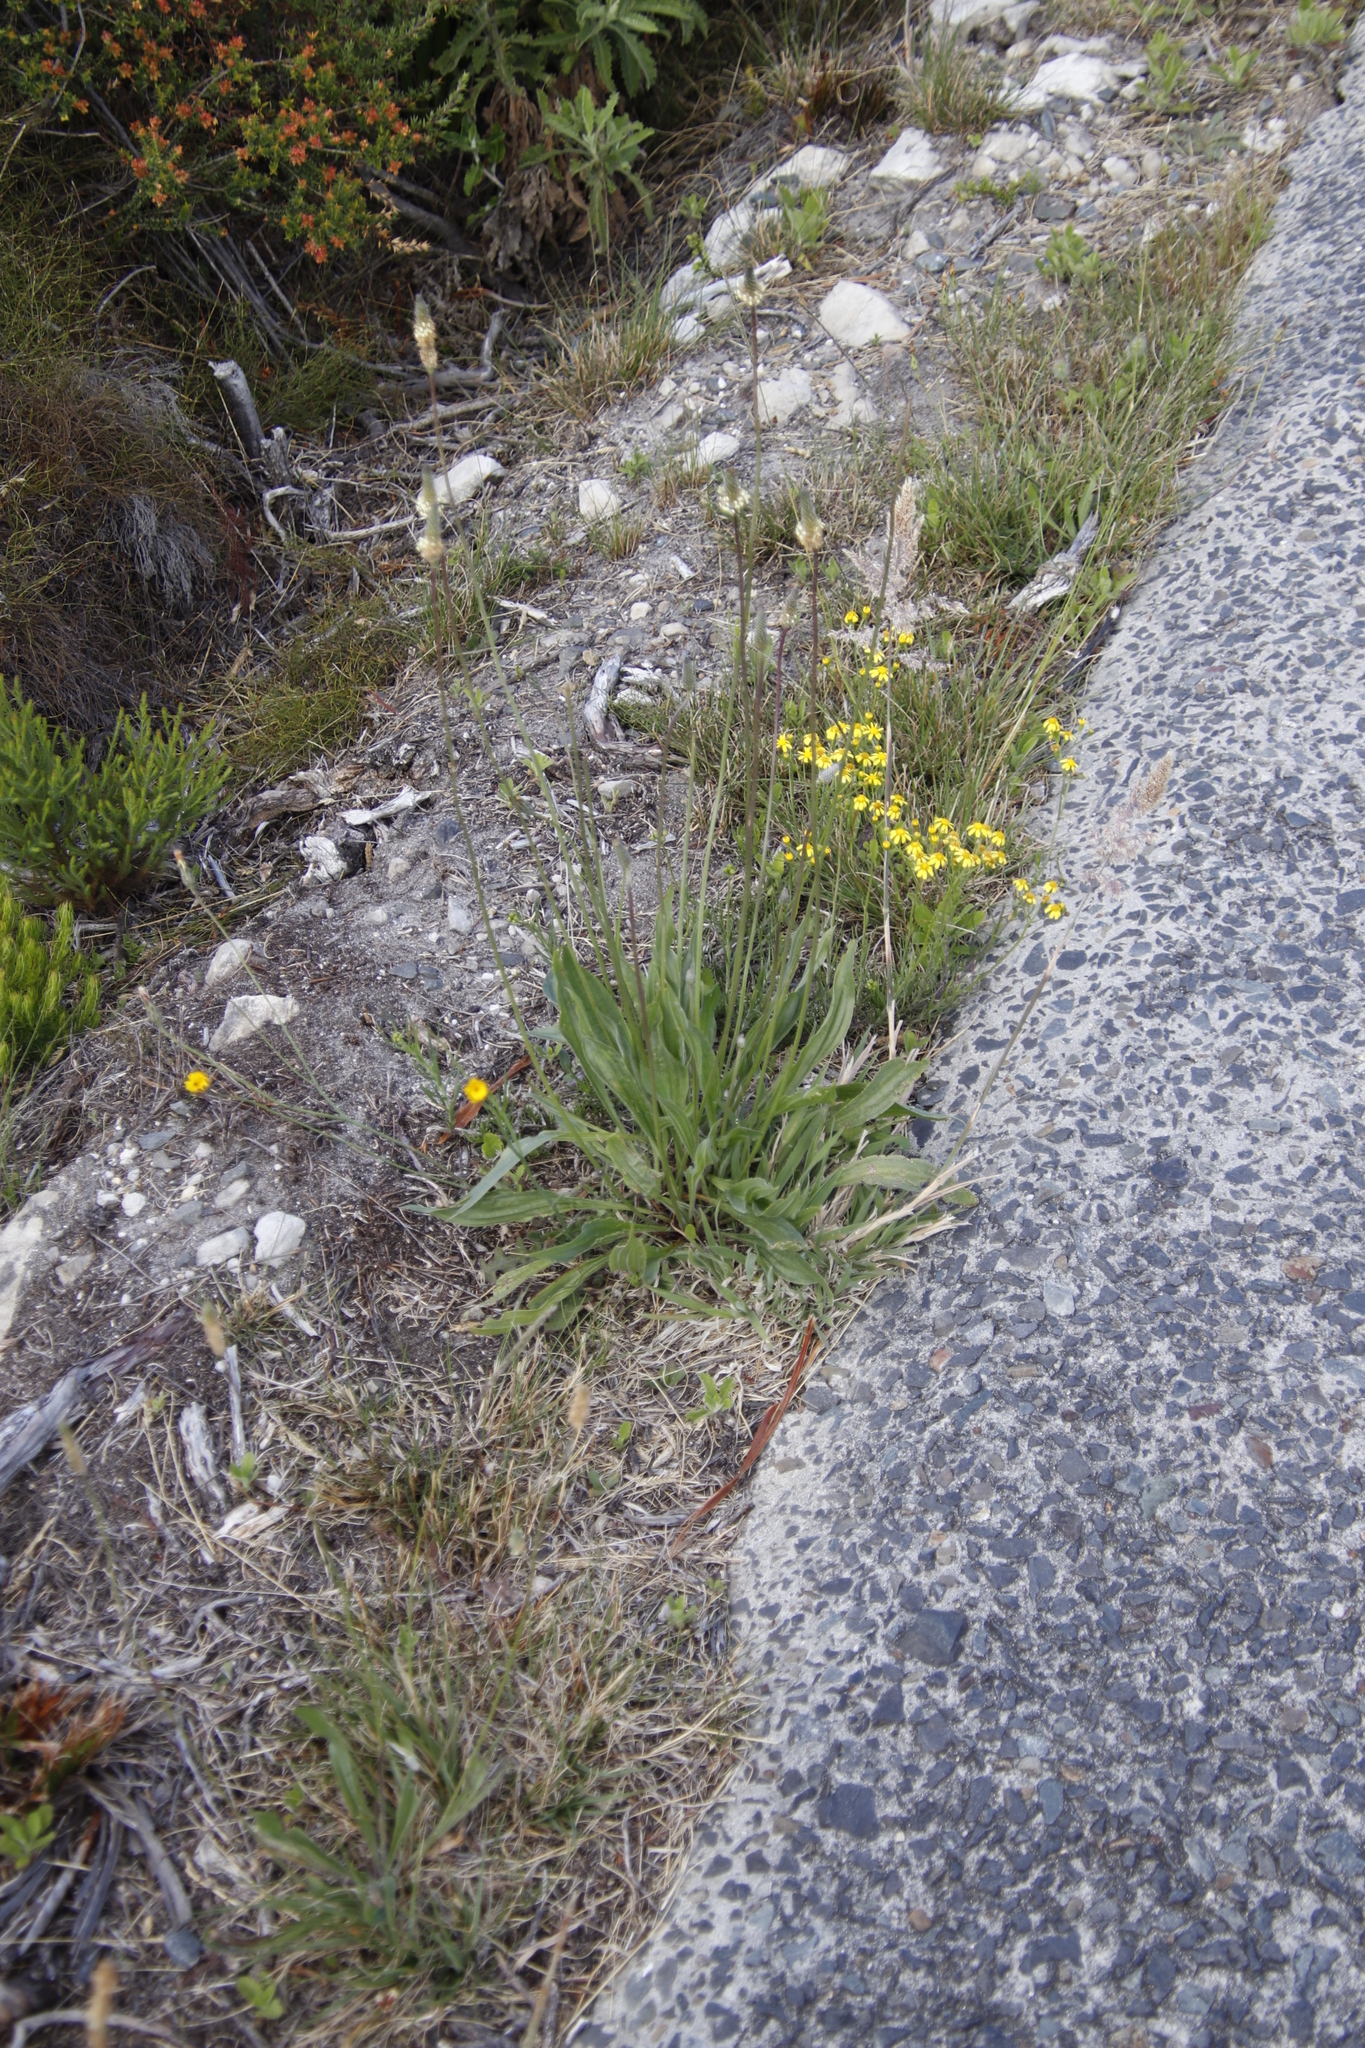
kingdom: Plantae
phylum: Tracheophyta
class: Magnoliopsida
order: Lamiales
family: Plantaginaceae
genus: Plantago
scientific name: Plantago lanceolata
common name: Ribwort plantain
